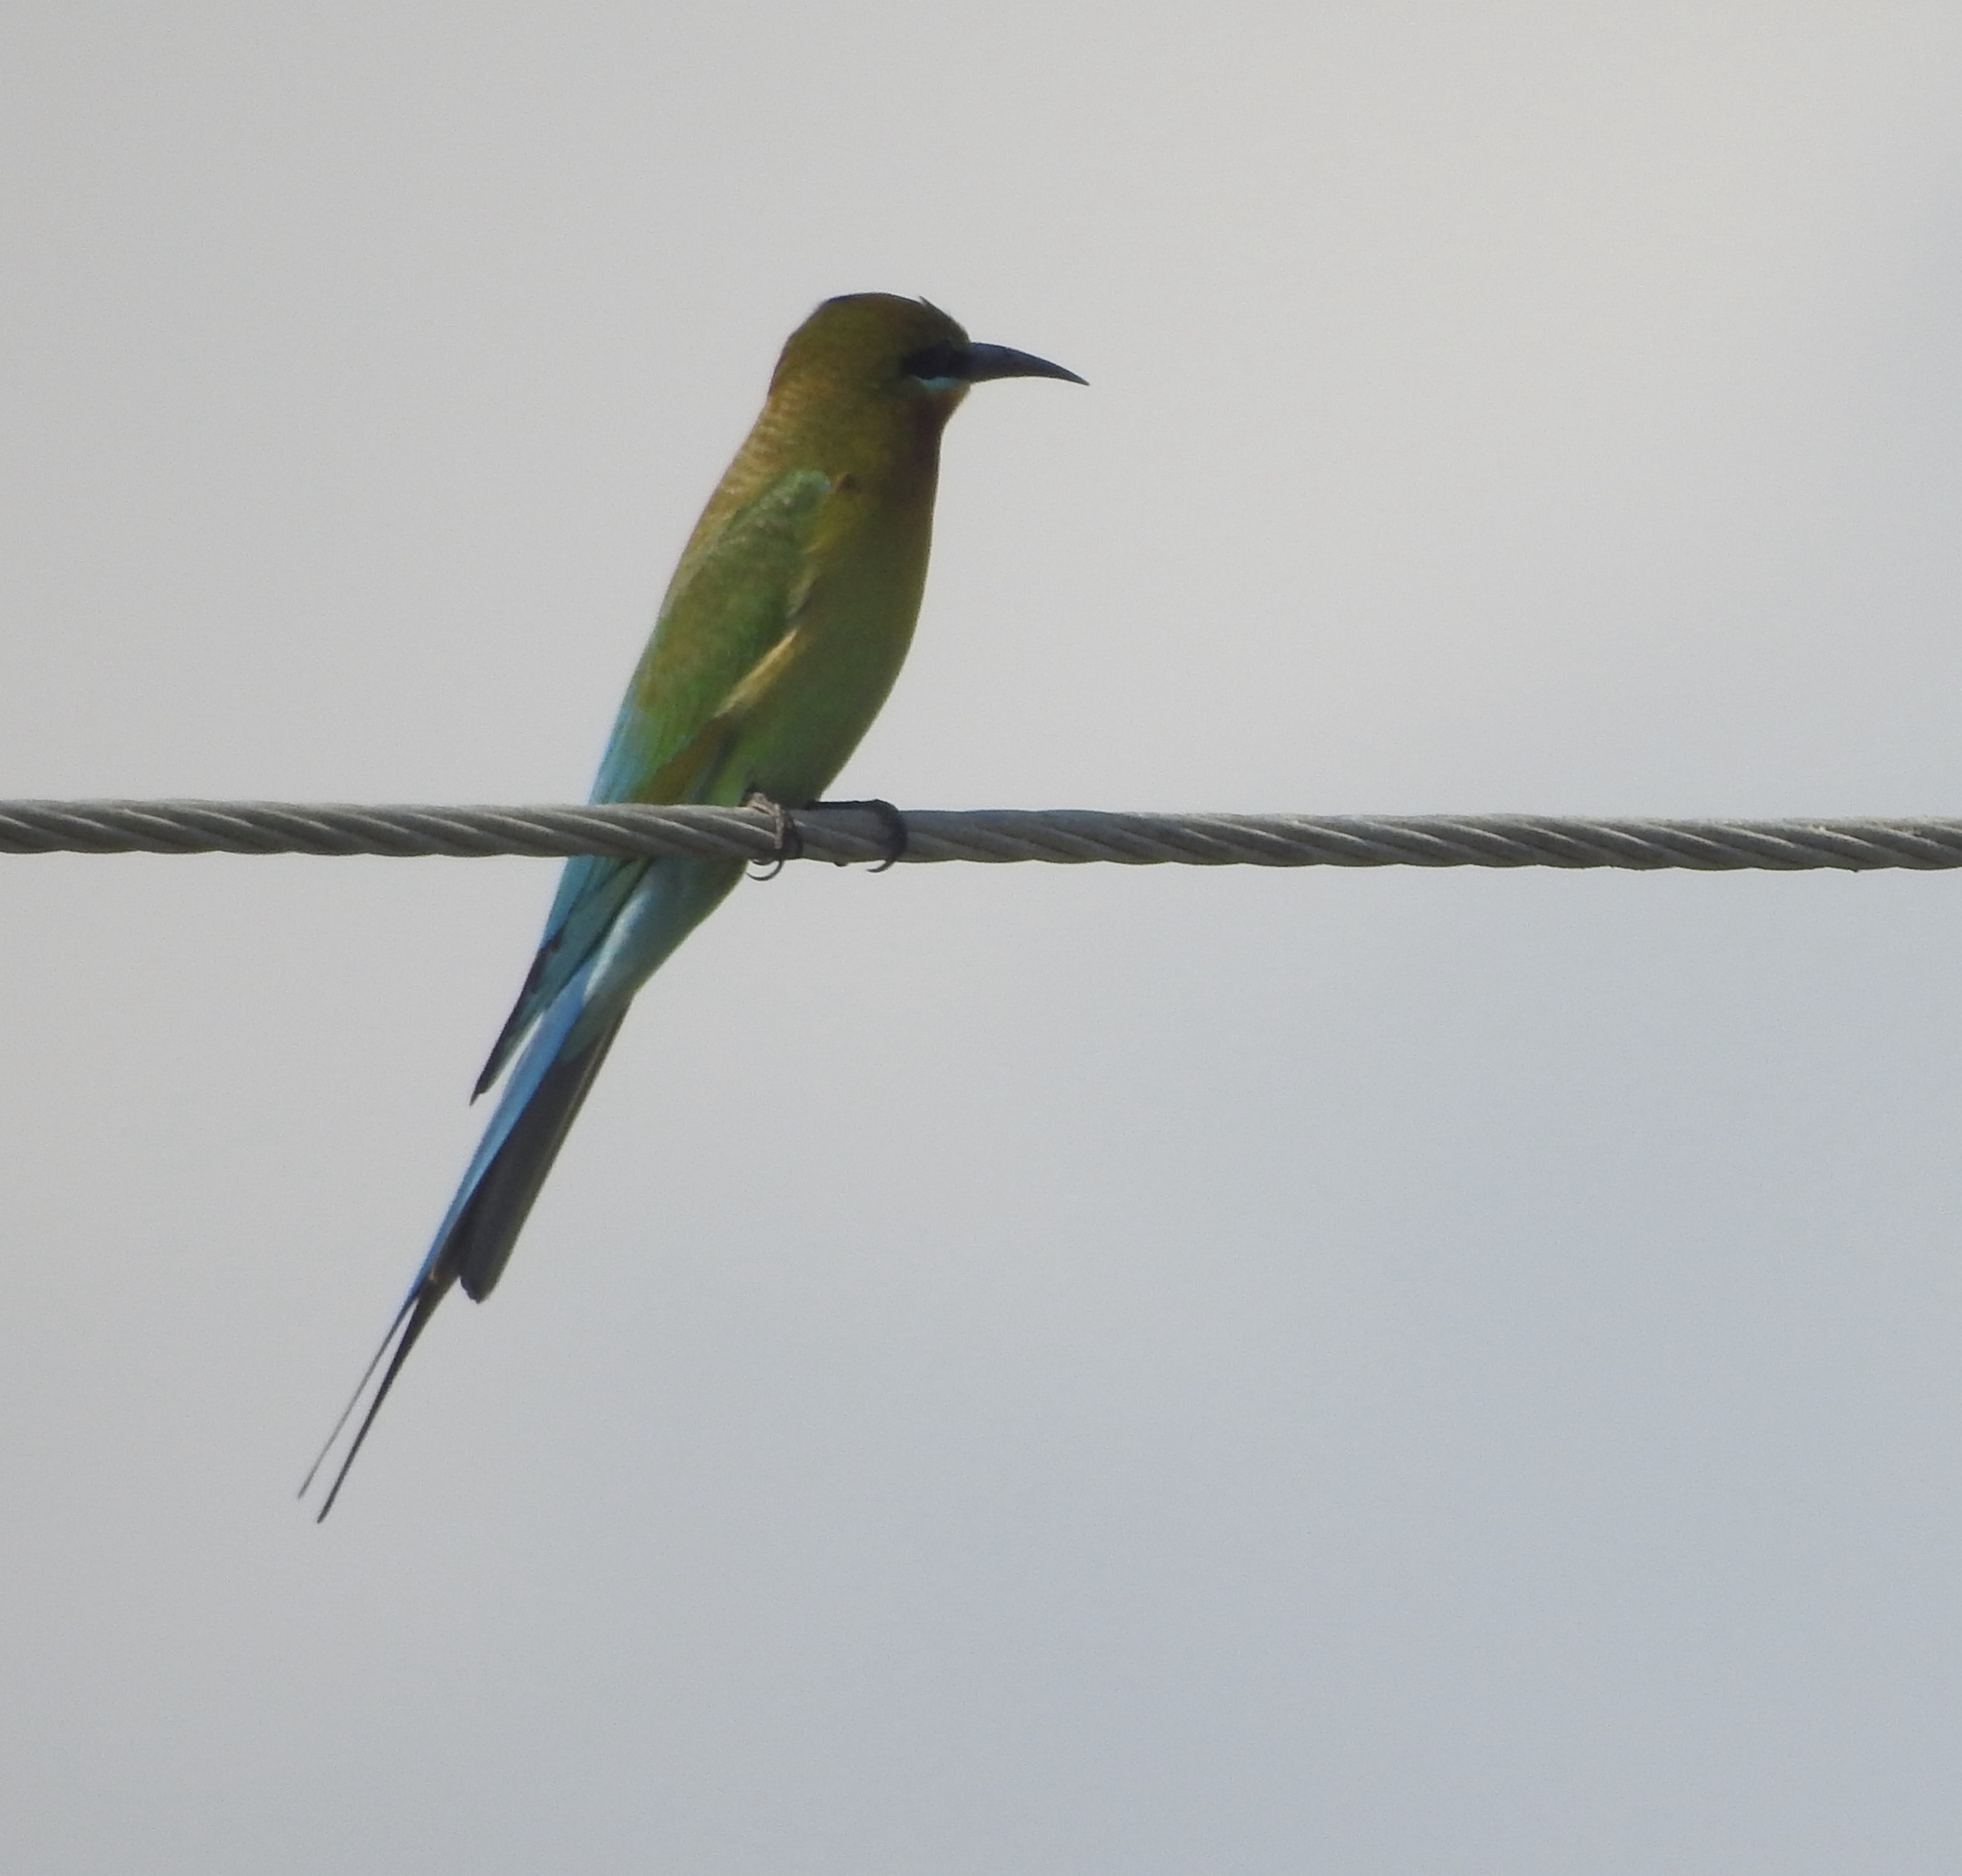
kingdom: Animalia
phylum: Chordata
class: Aves
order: Coraciiformes
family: Meropidae
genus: Merops
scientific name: Merops philippinus
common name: Blue-tailed bee-eater
